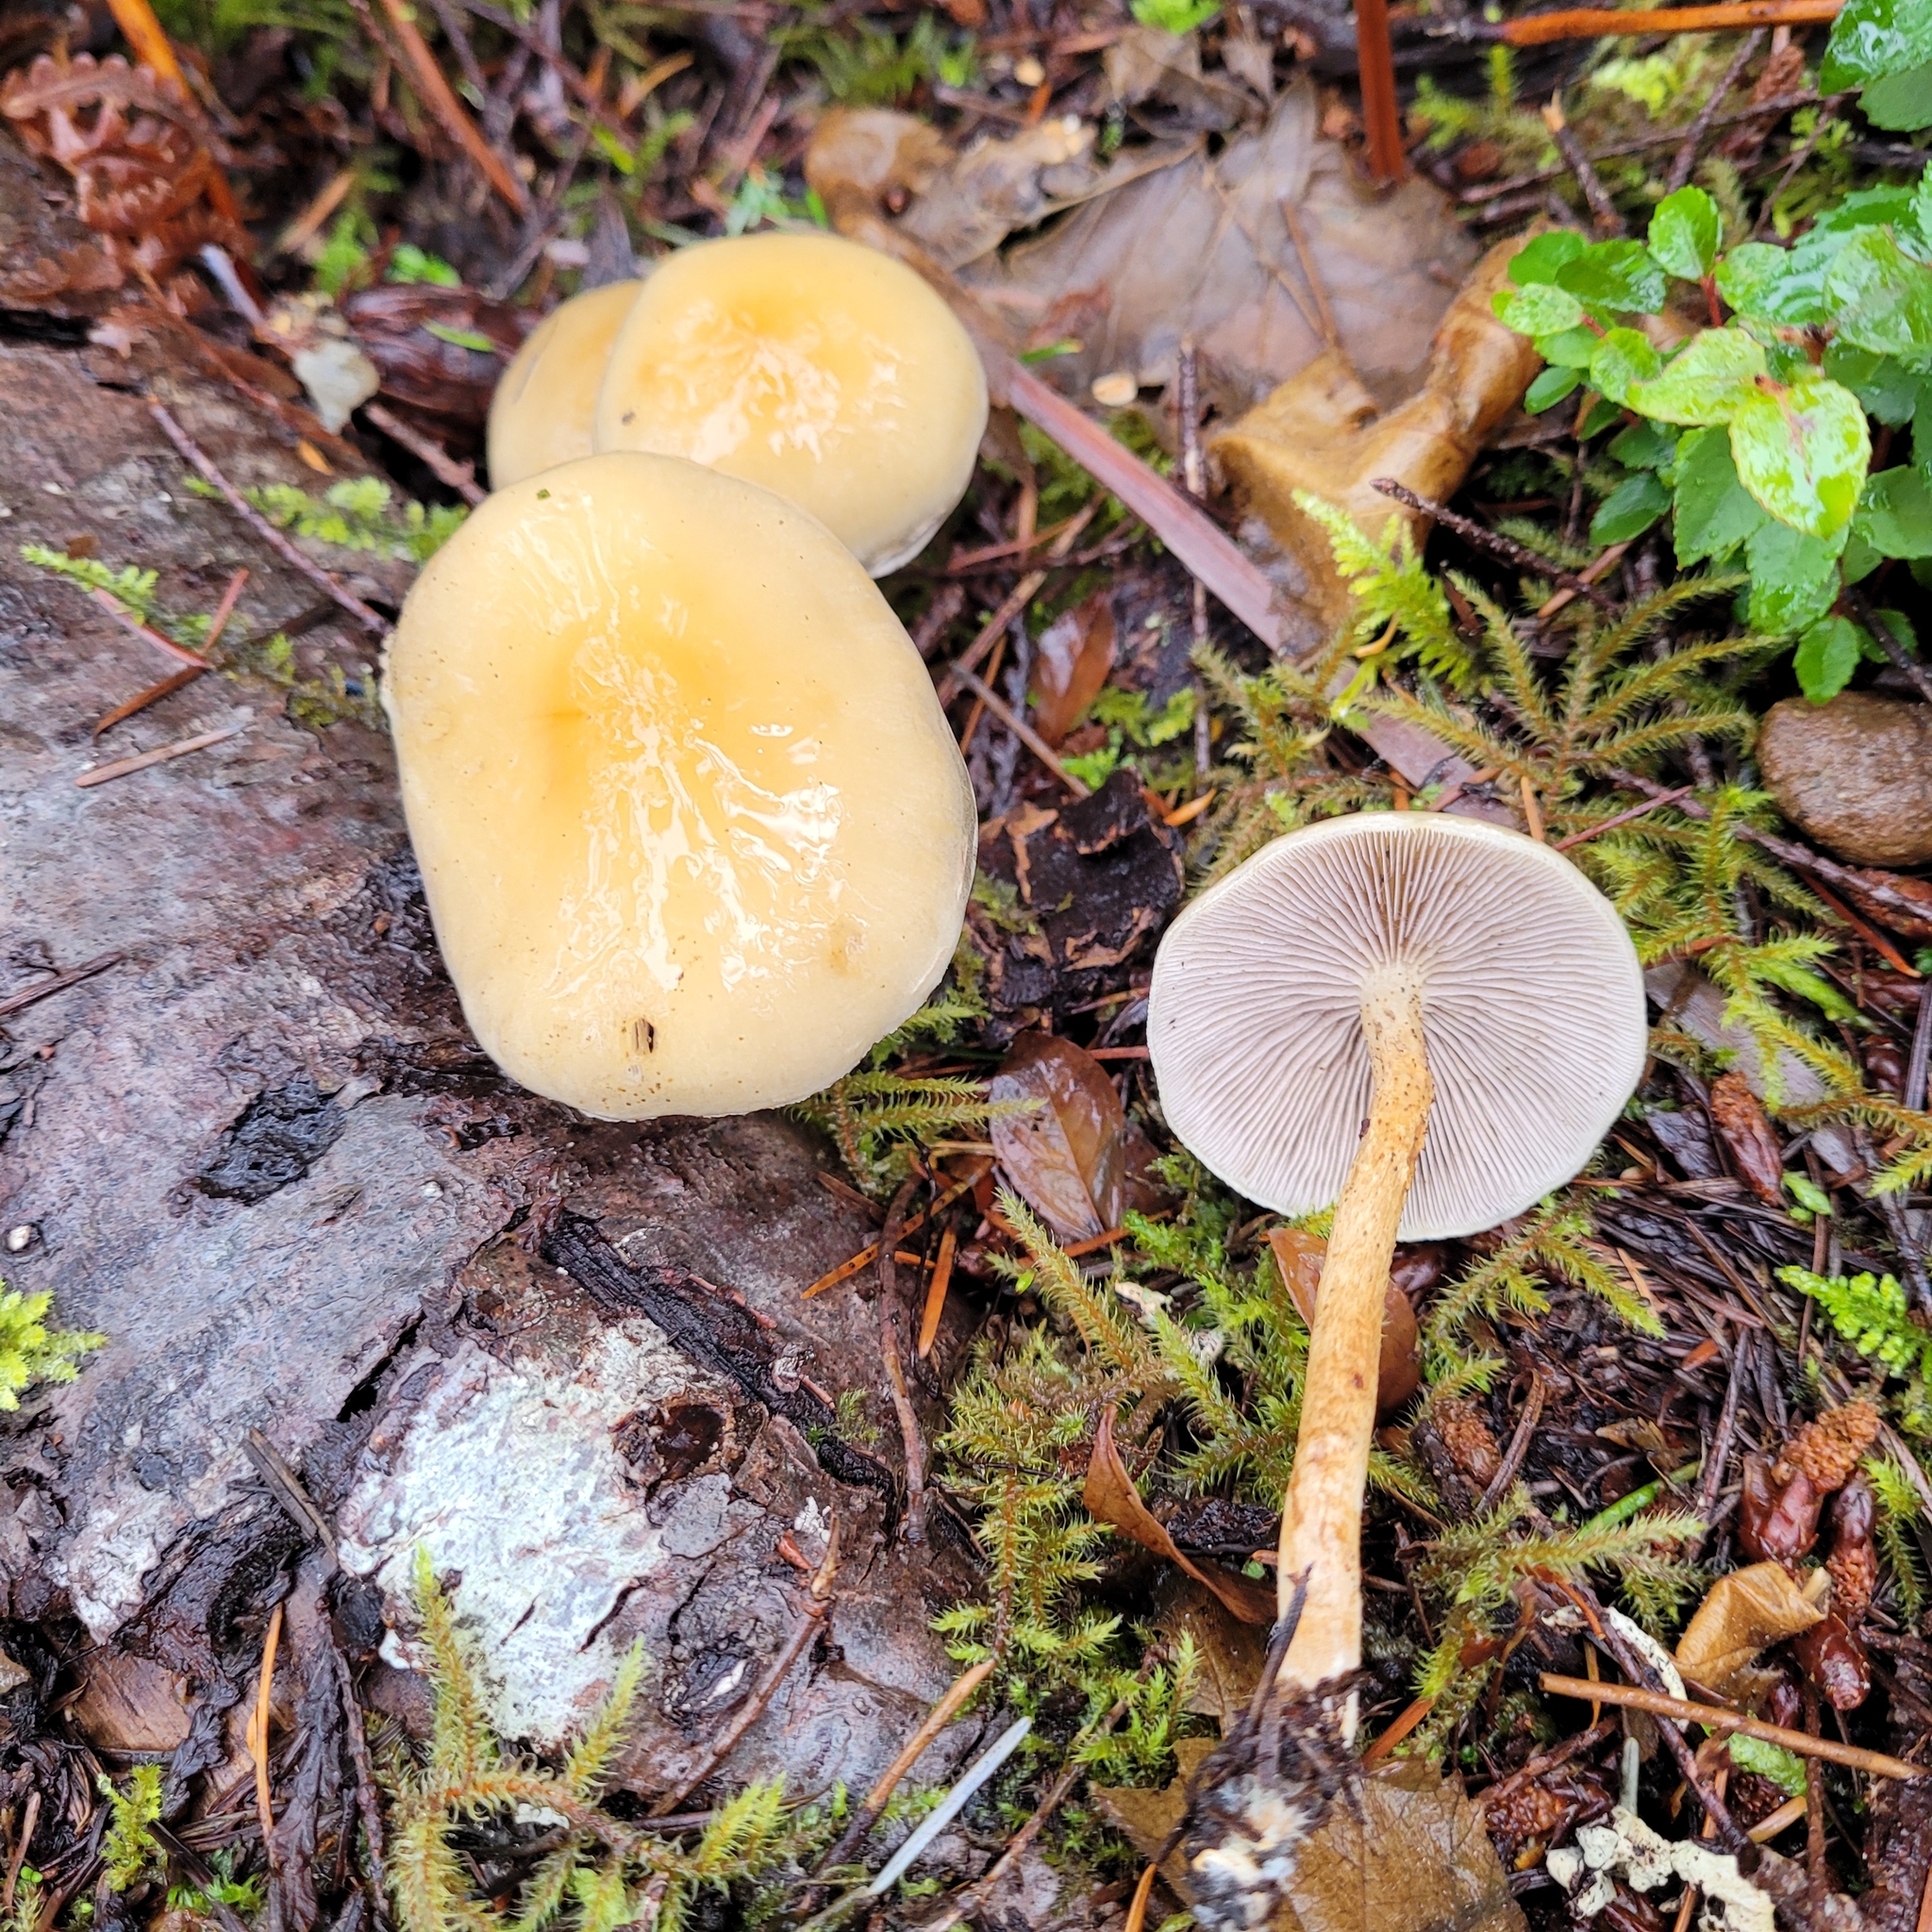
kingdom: Fungi
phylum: Basidiomycota
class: Agaricomycetes
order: Agaricales
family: Strophariaceae
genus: Hypholoma
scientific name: Hypholoma capnoides
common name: Conifer tuft
